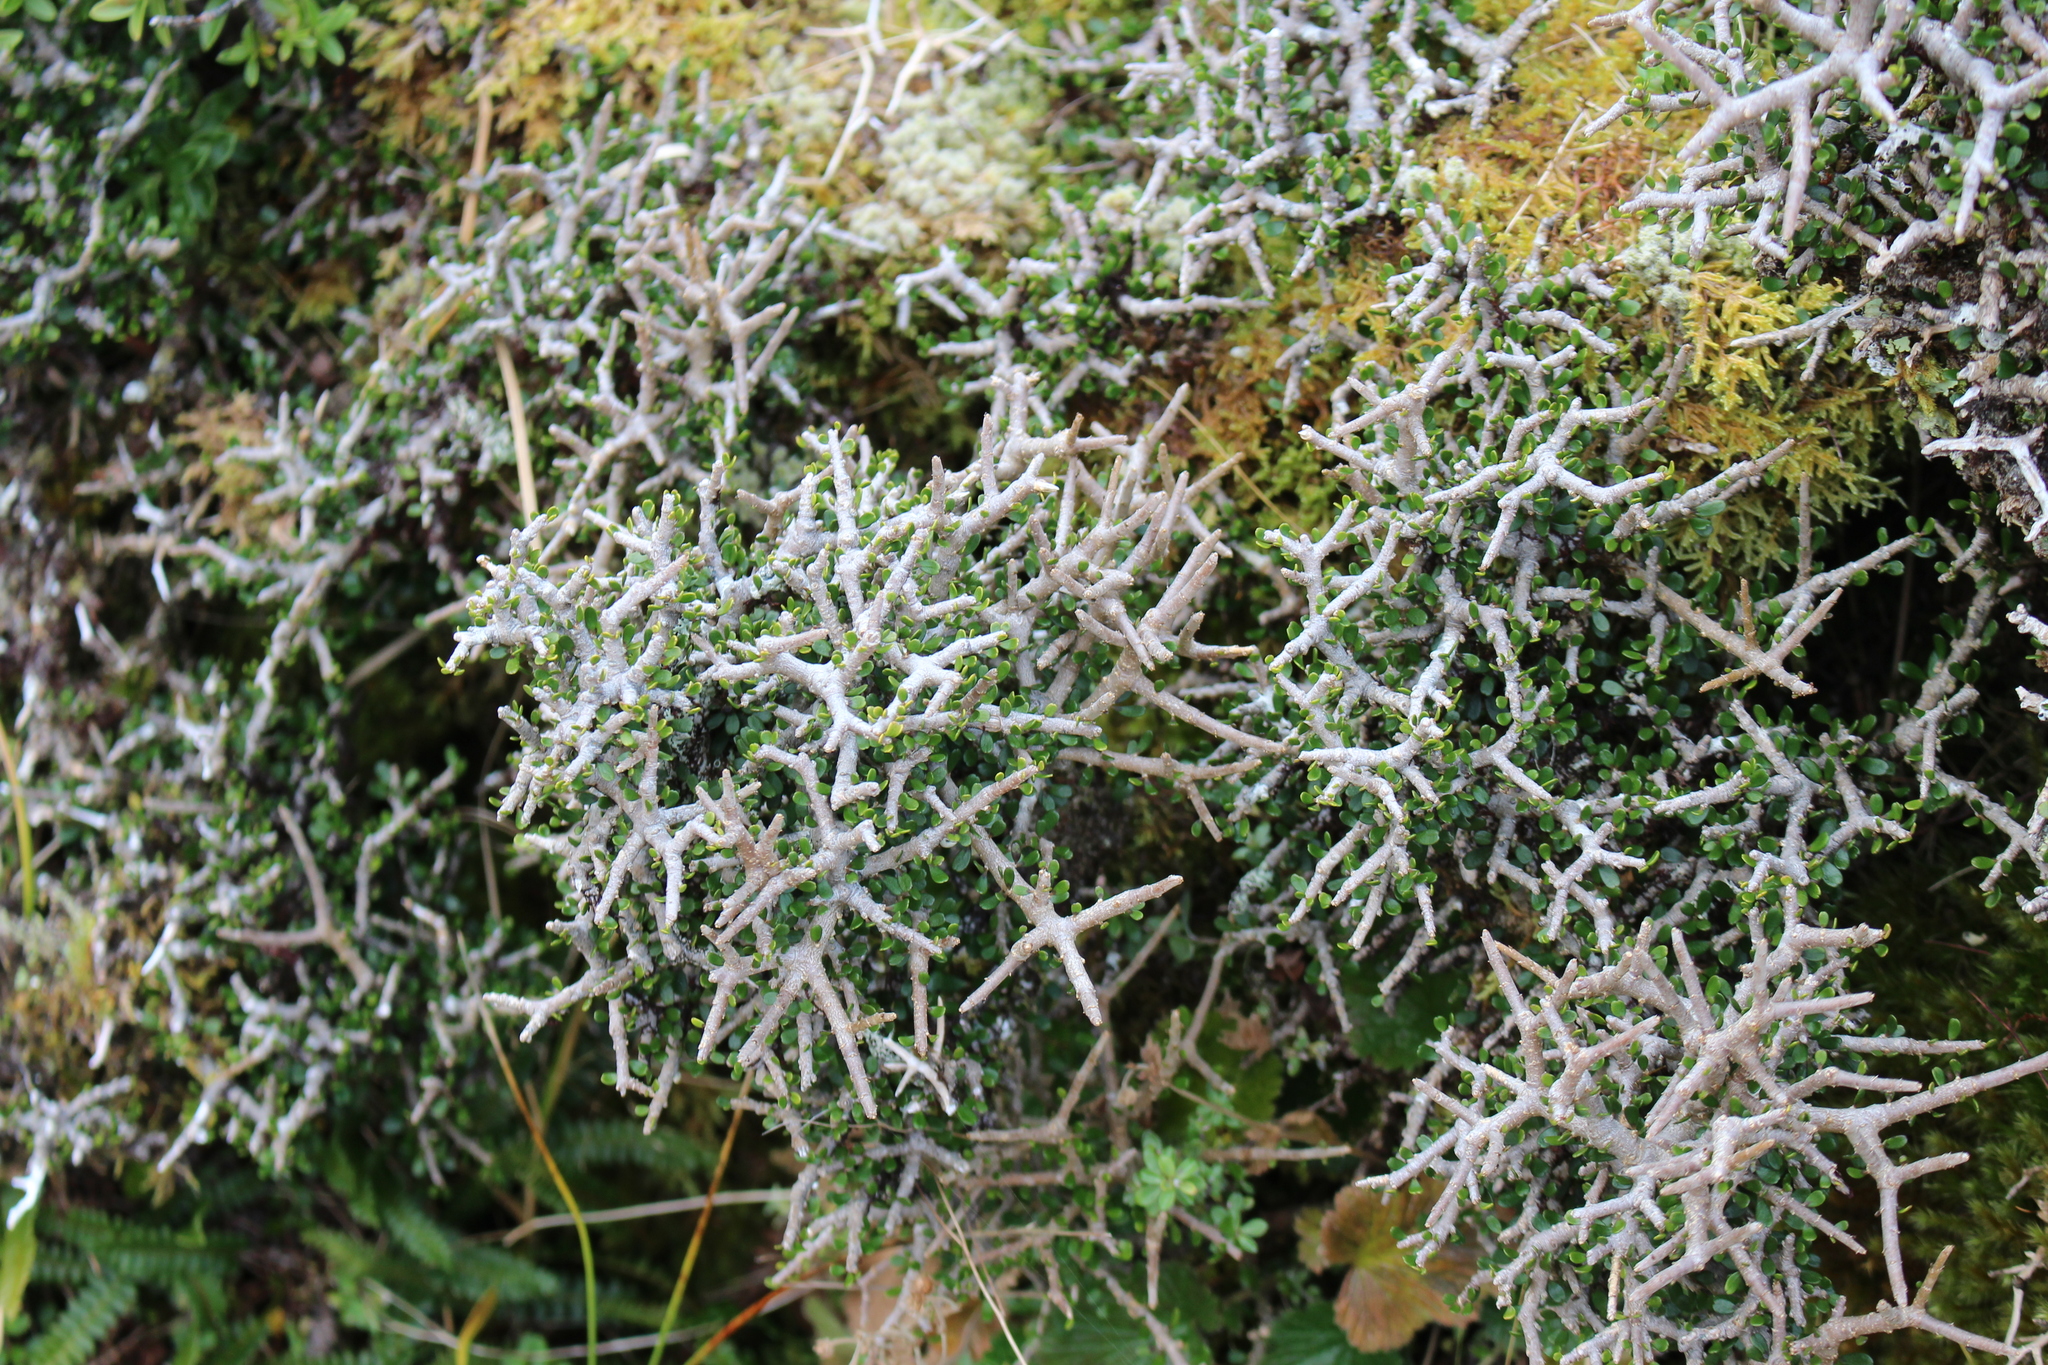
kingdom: Plantae
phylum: Tracheophyta
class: Magnoliopsida
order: Malpighiales
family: Violaceae
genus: Melicytus
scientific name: Melicytus alpinus
